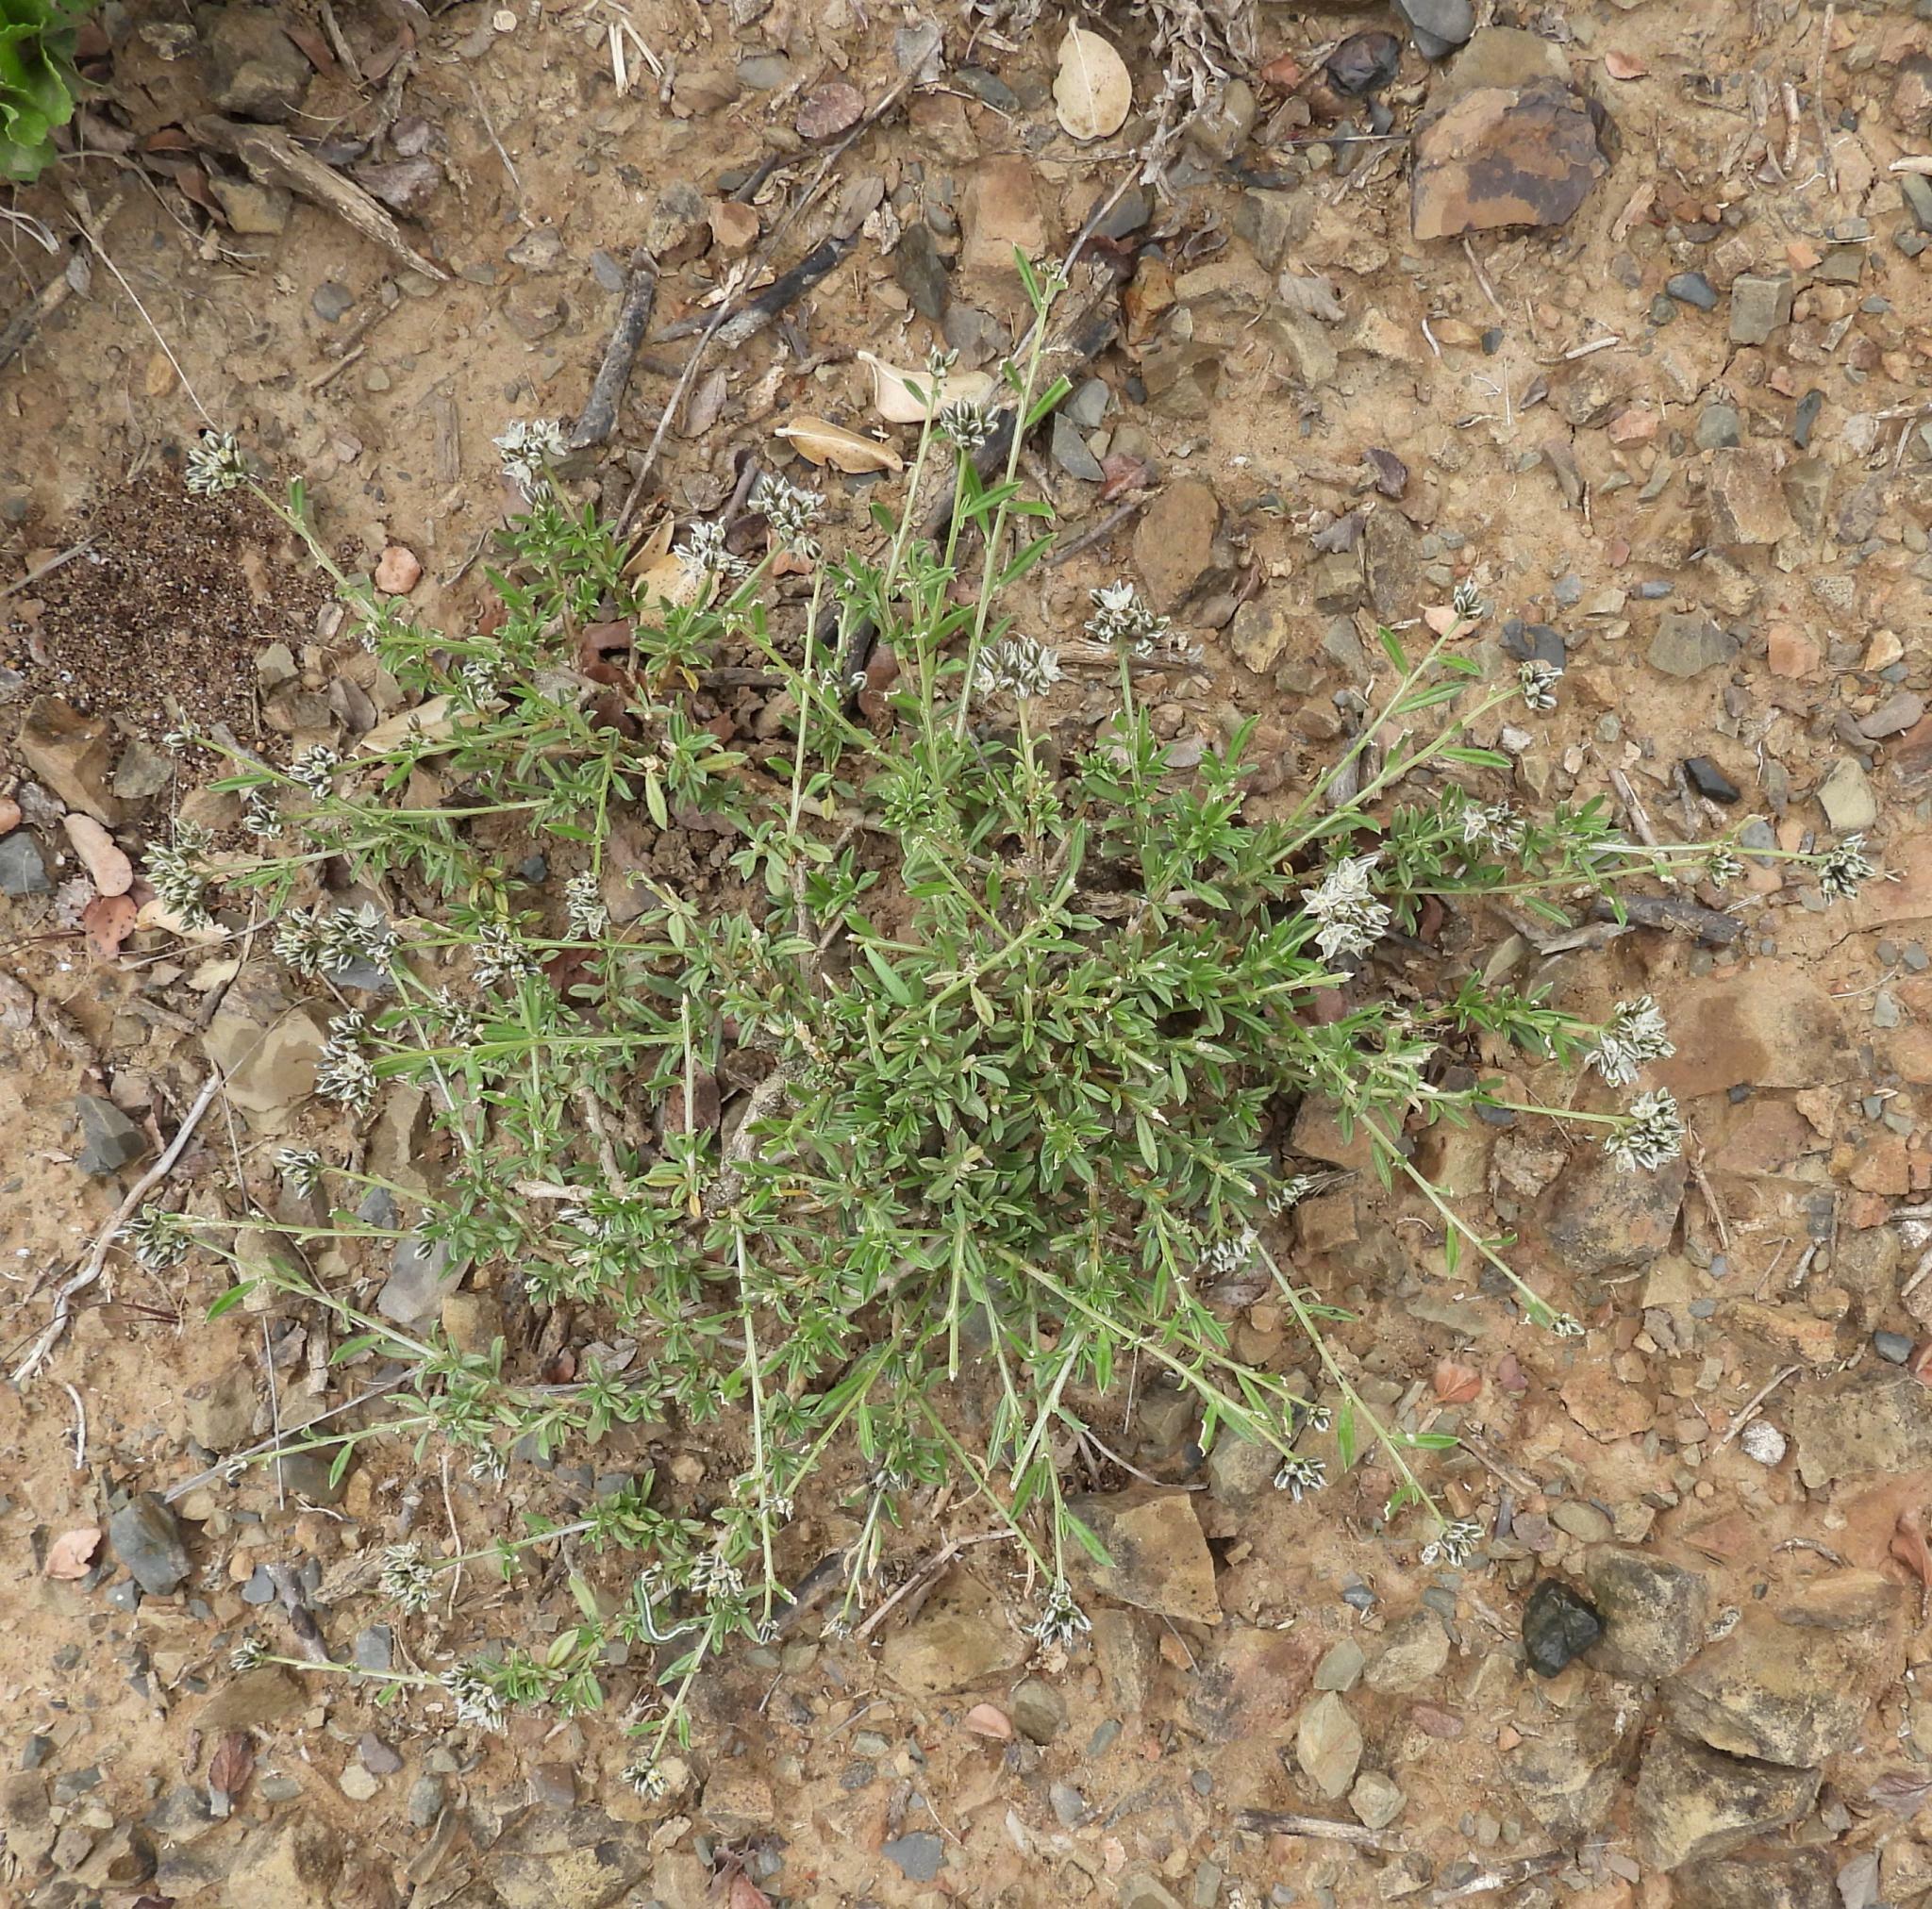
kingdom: Plantae
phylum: Tracheophyta
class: Magnoliopsida
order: Caryophyllales
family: Limeaceae
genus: Limeum
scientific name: Limeum aethiopicum
